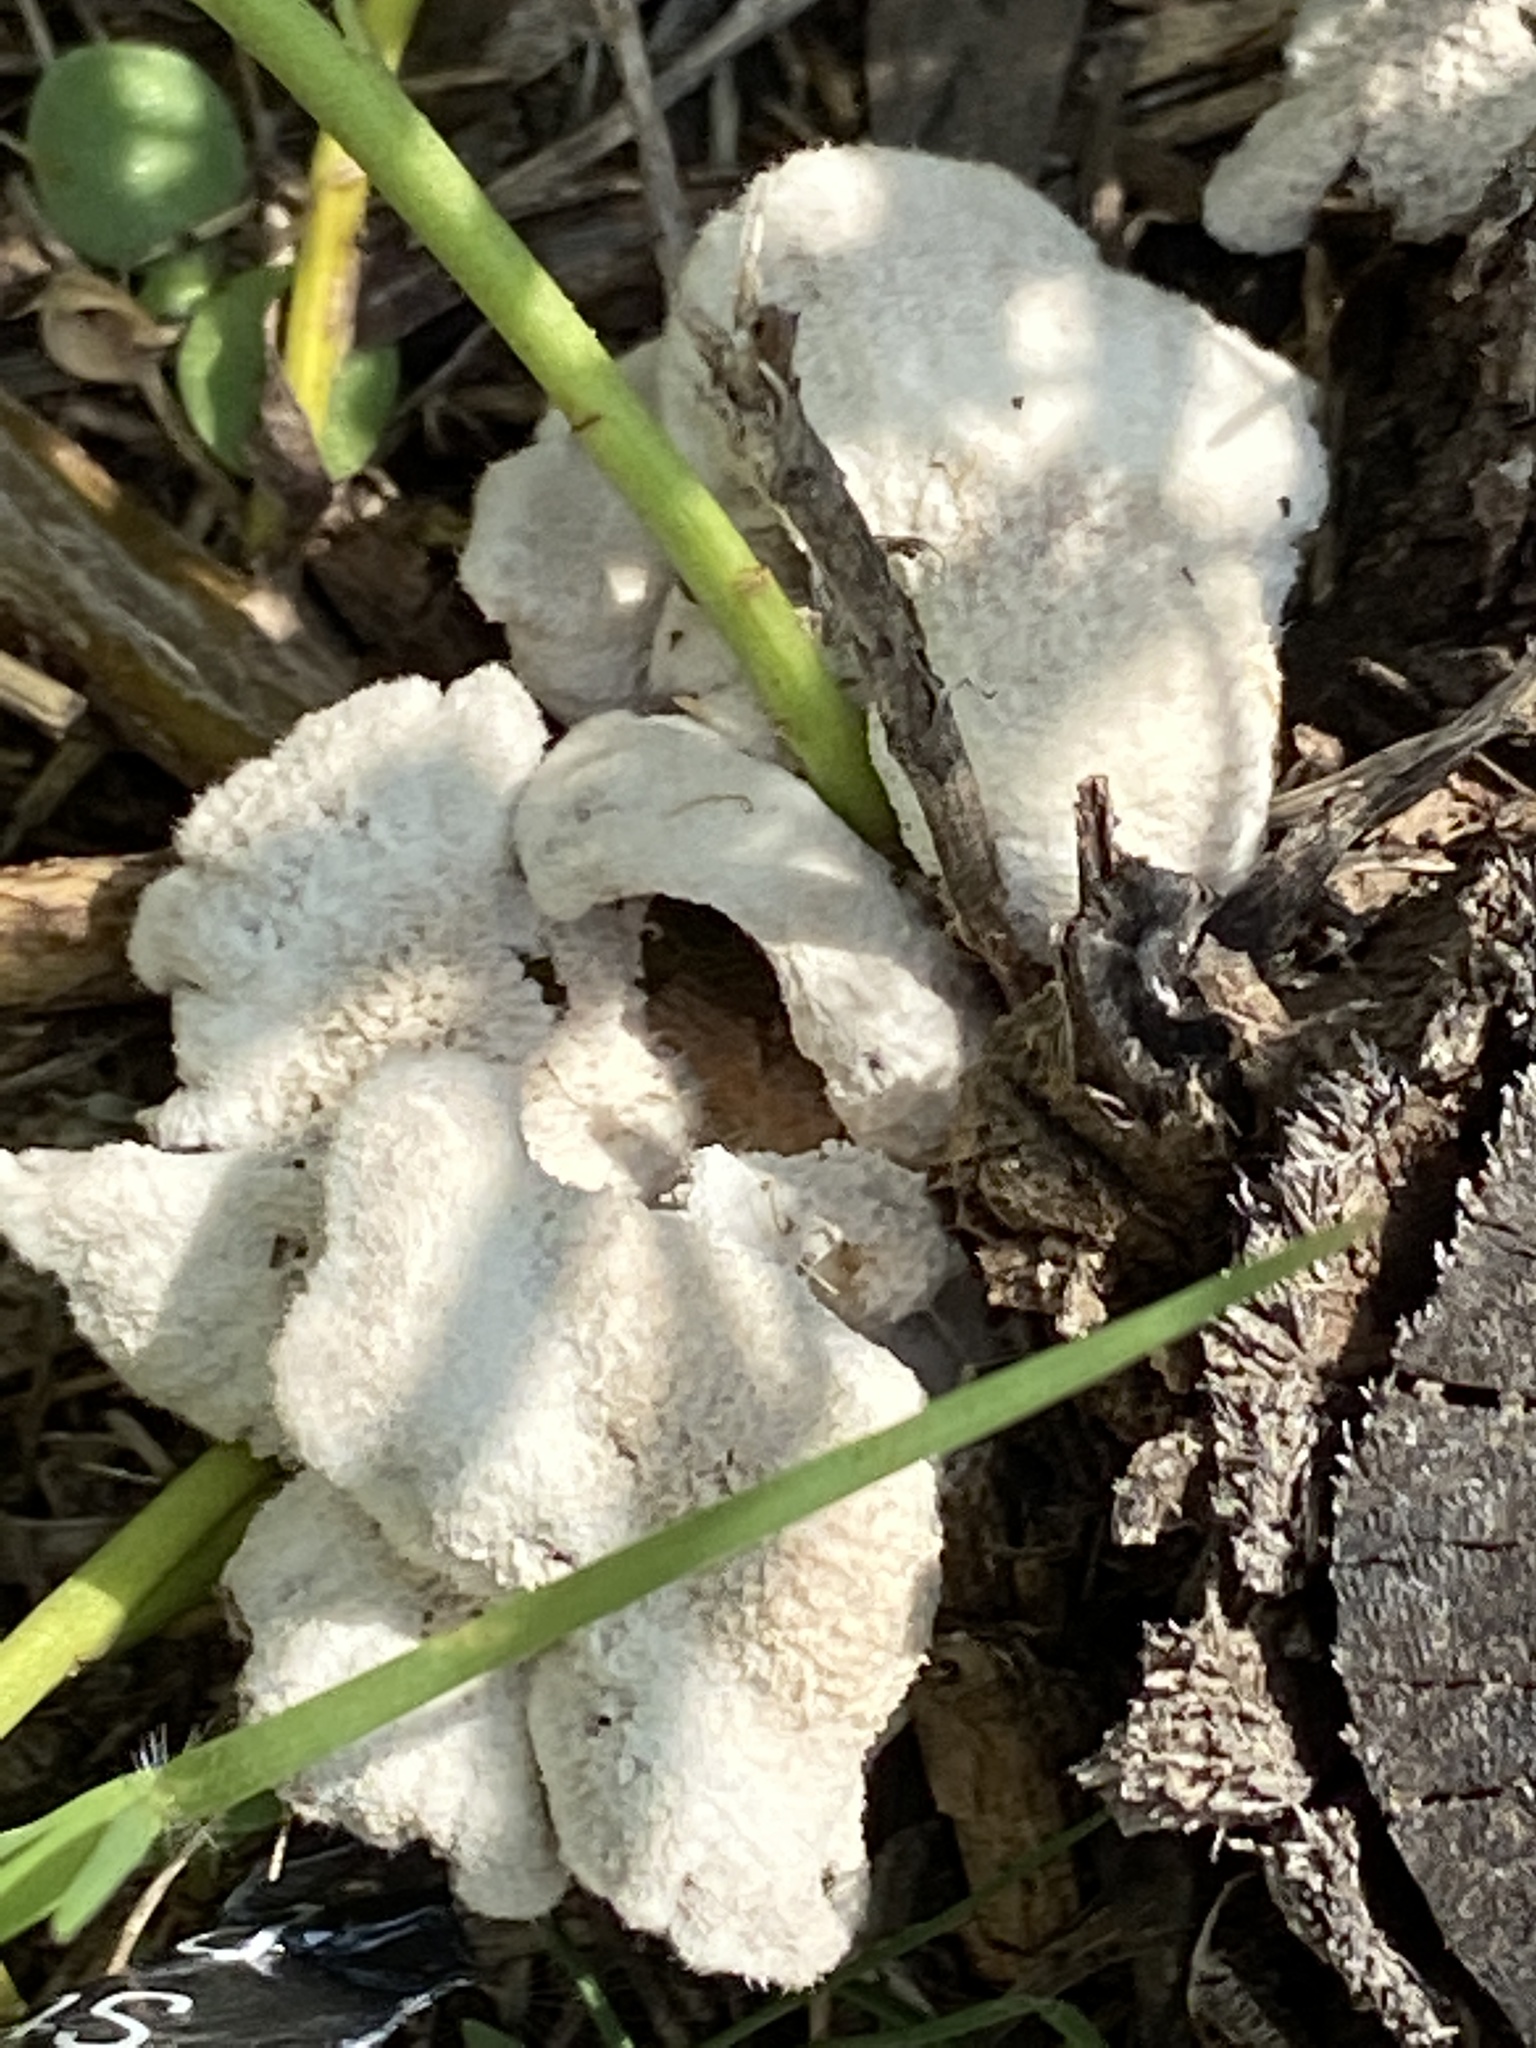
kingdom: Fungi
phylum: Basidiomycota
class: Agaricomycetes
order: Agaricales
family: Schizophyllaceae
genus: Schizophyllum
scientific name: Schizophyllum commune
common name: Common porecrust
